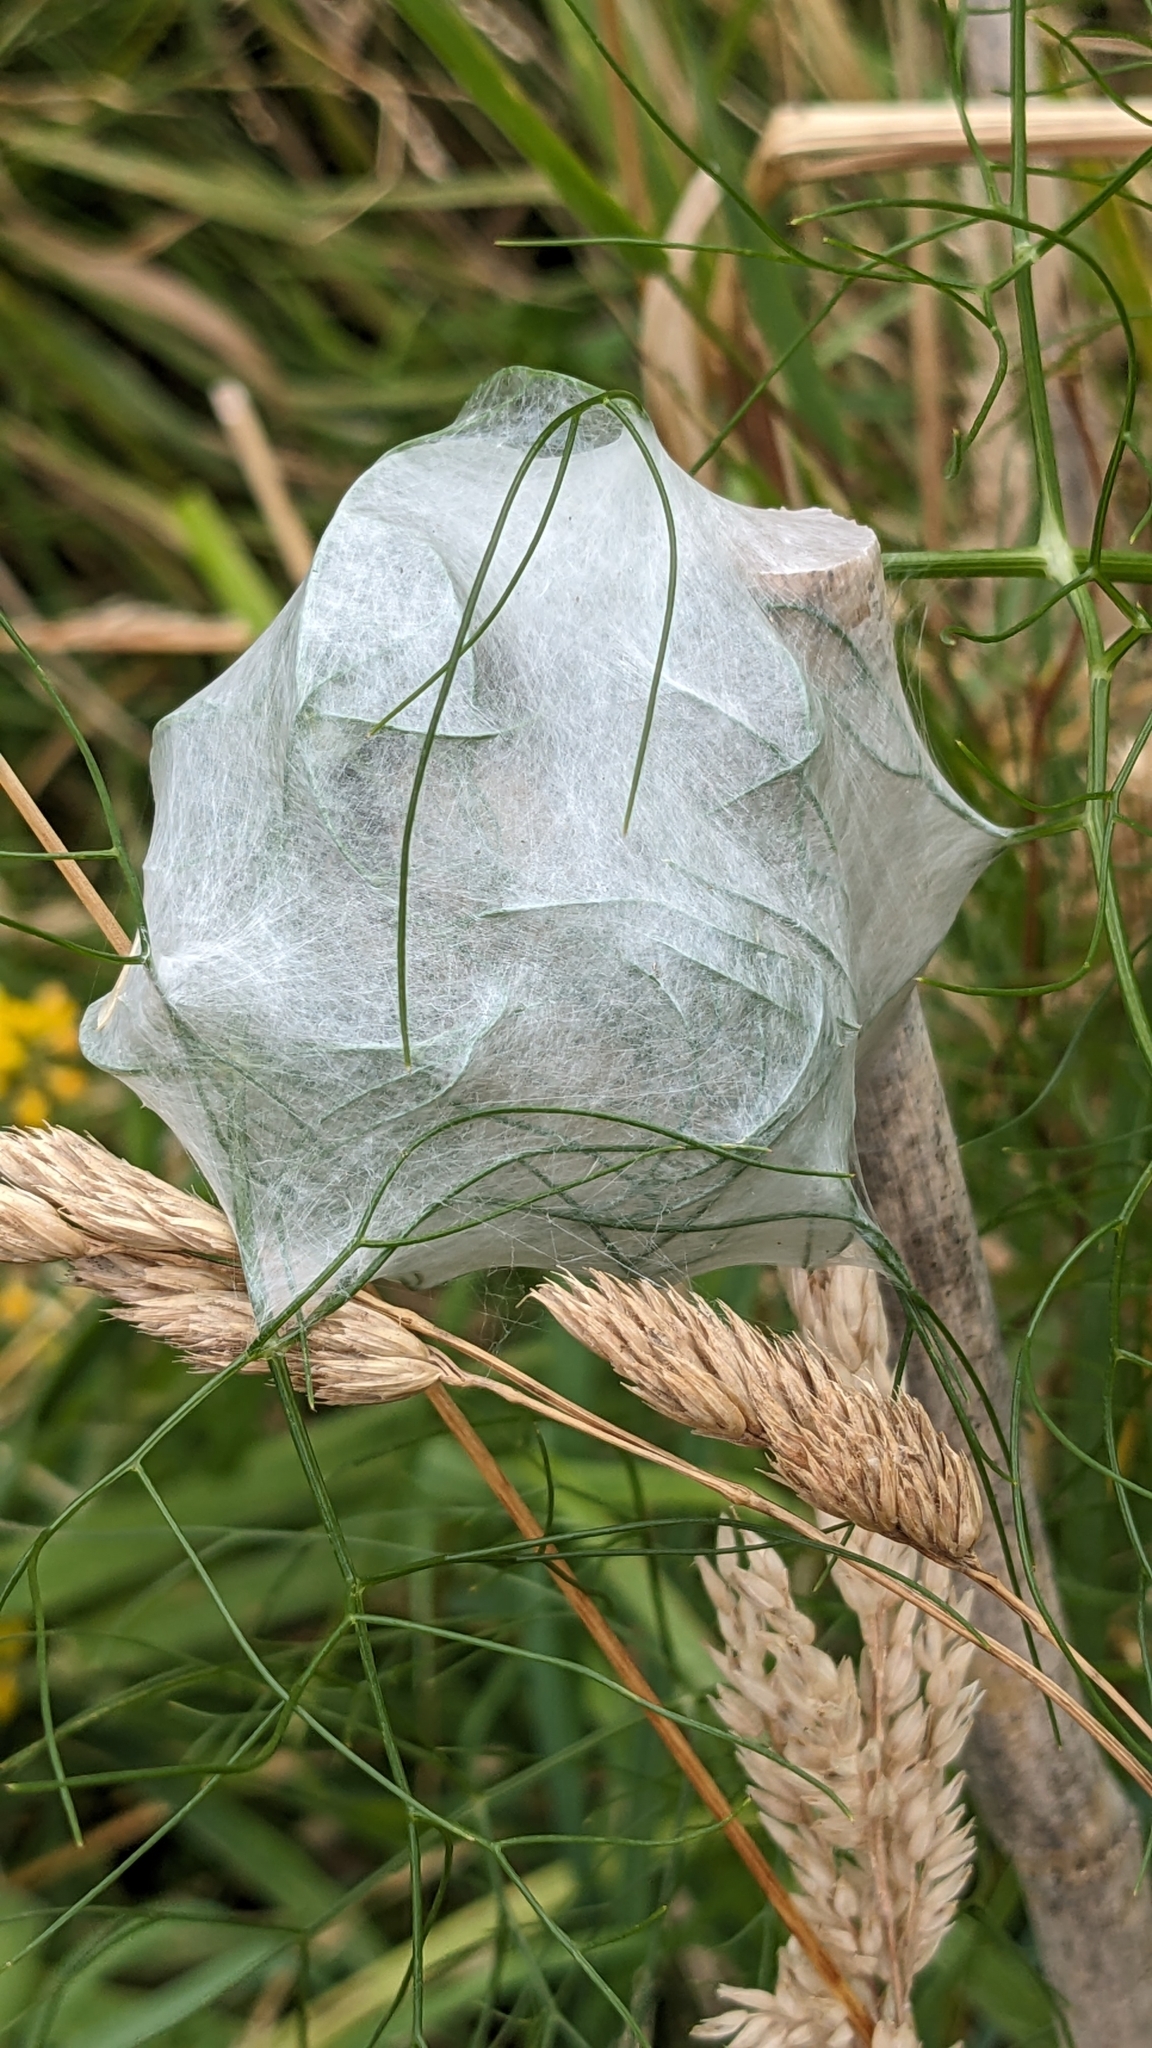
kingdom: Animalia
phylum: Arthropoda
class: Arachnida
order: Araneae
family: Pisauridae
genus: Dolomedes
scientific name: Dolomedes minor
